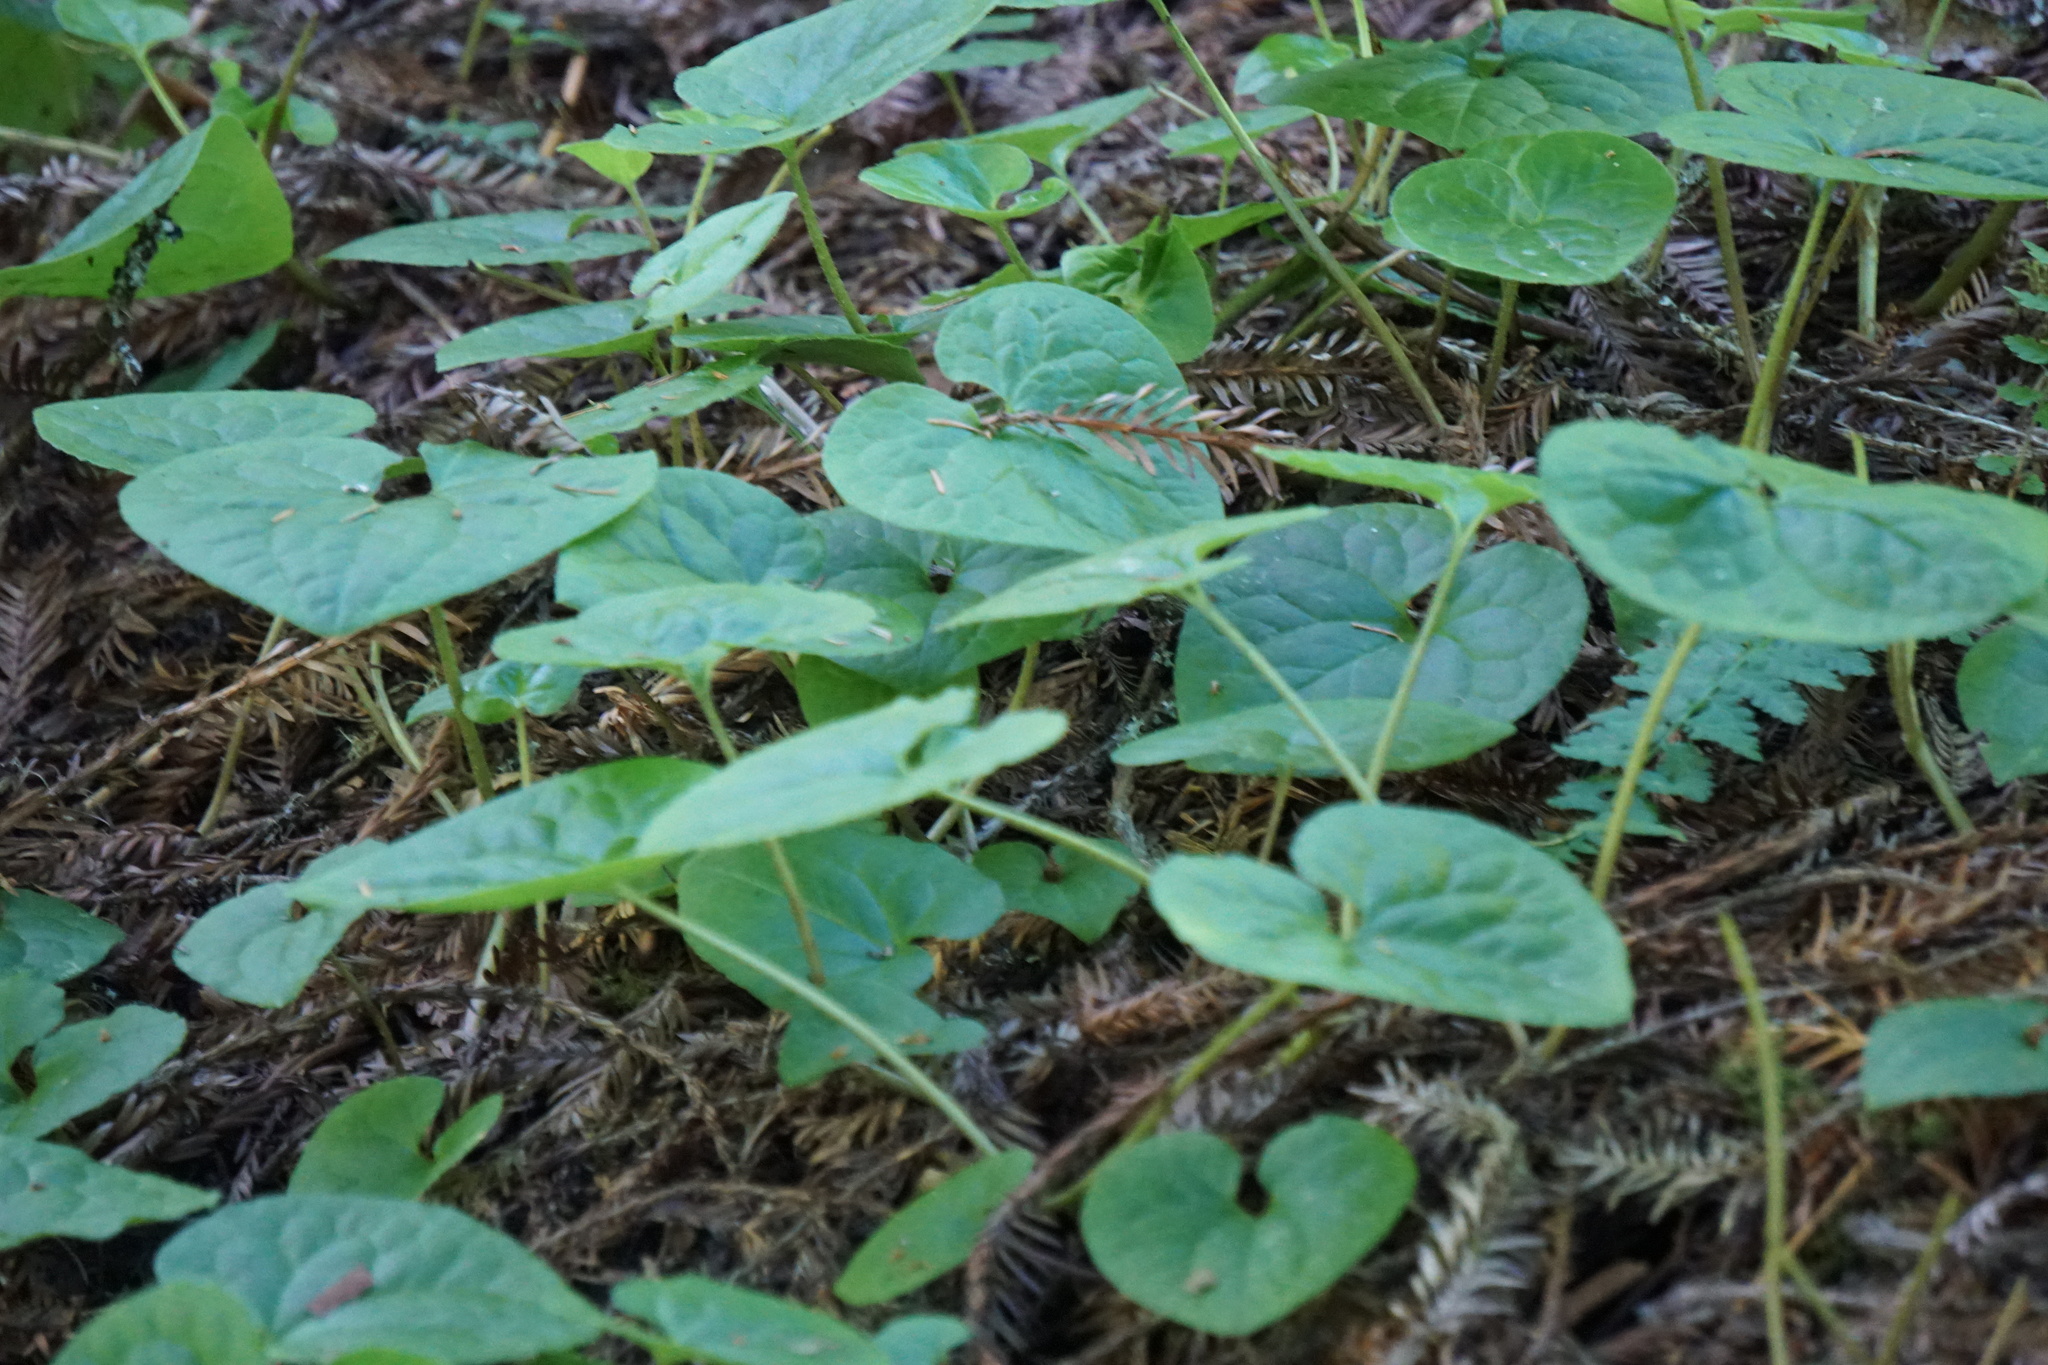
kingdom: Plantae
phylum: Tracheophyta
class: Magnoliopsida
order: Piperales
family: Aristolochiaceae
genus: Asarum
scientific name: Asarum caudatum
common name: Wild ginger
